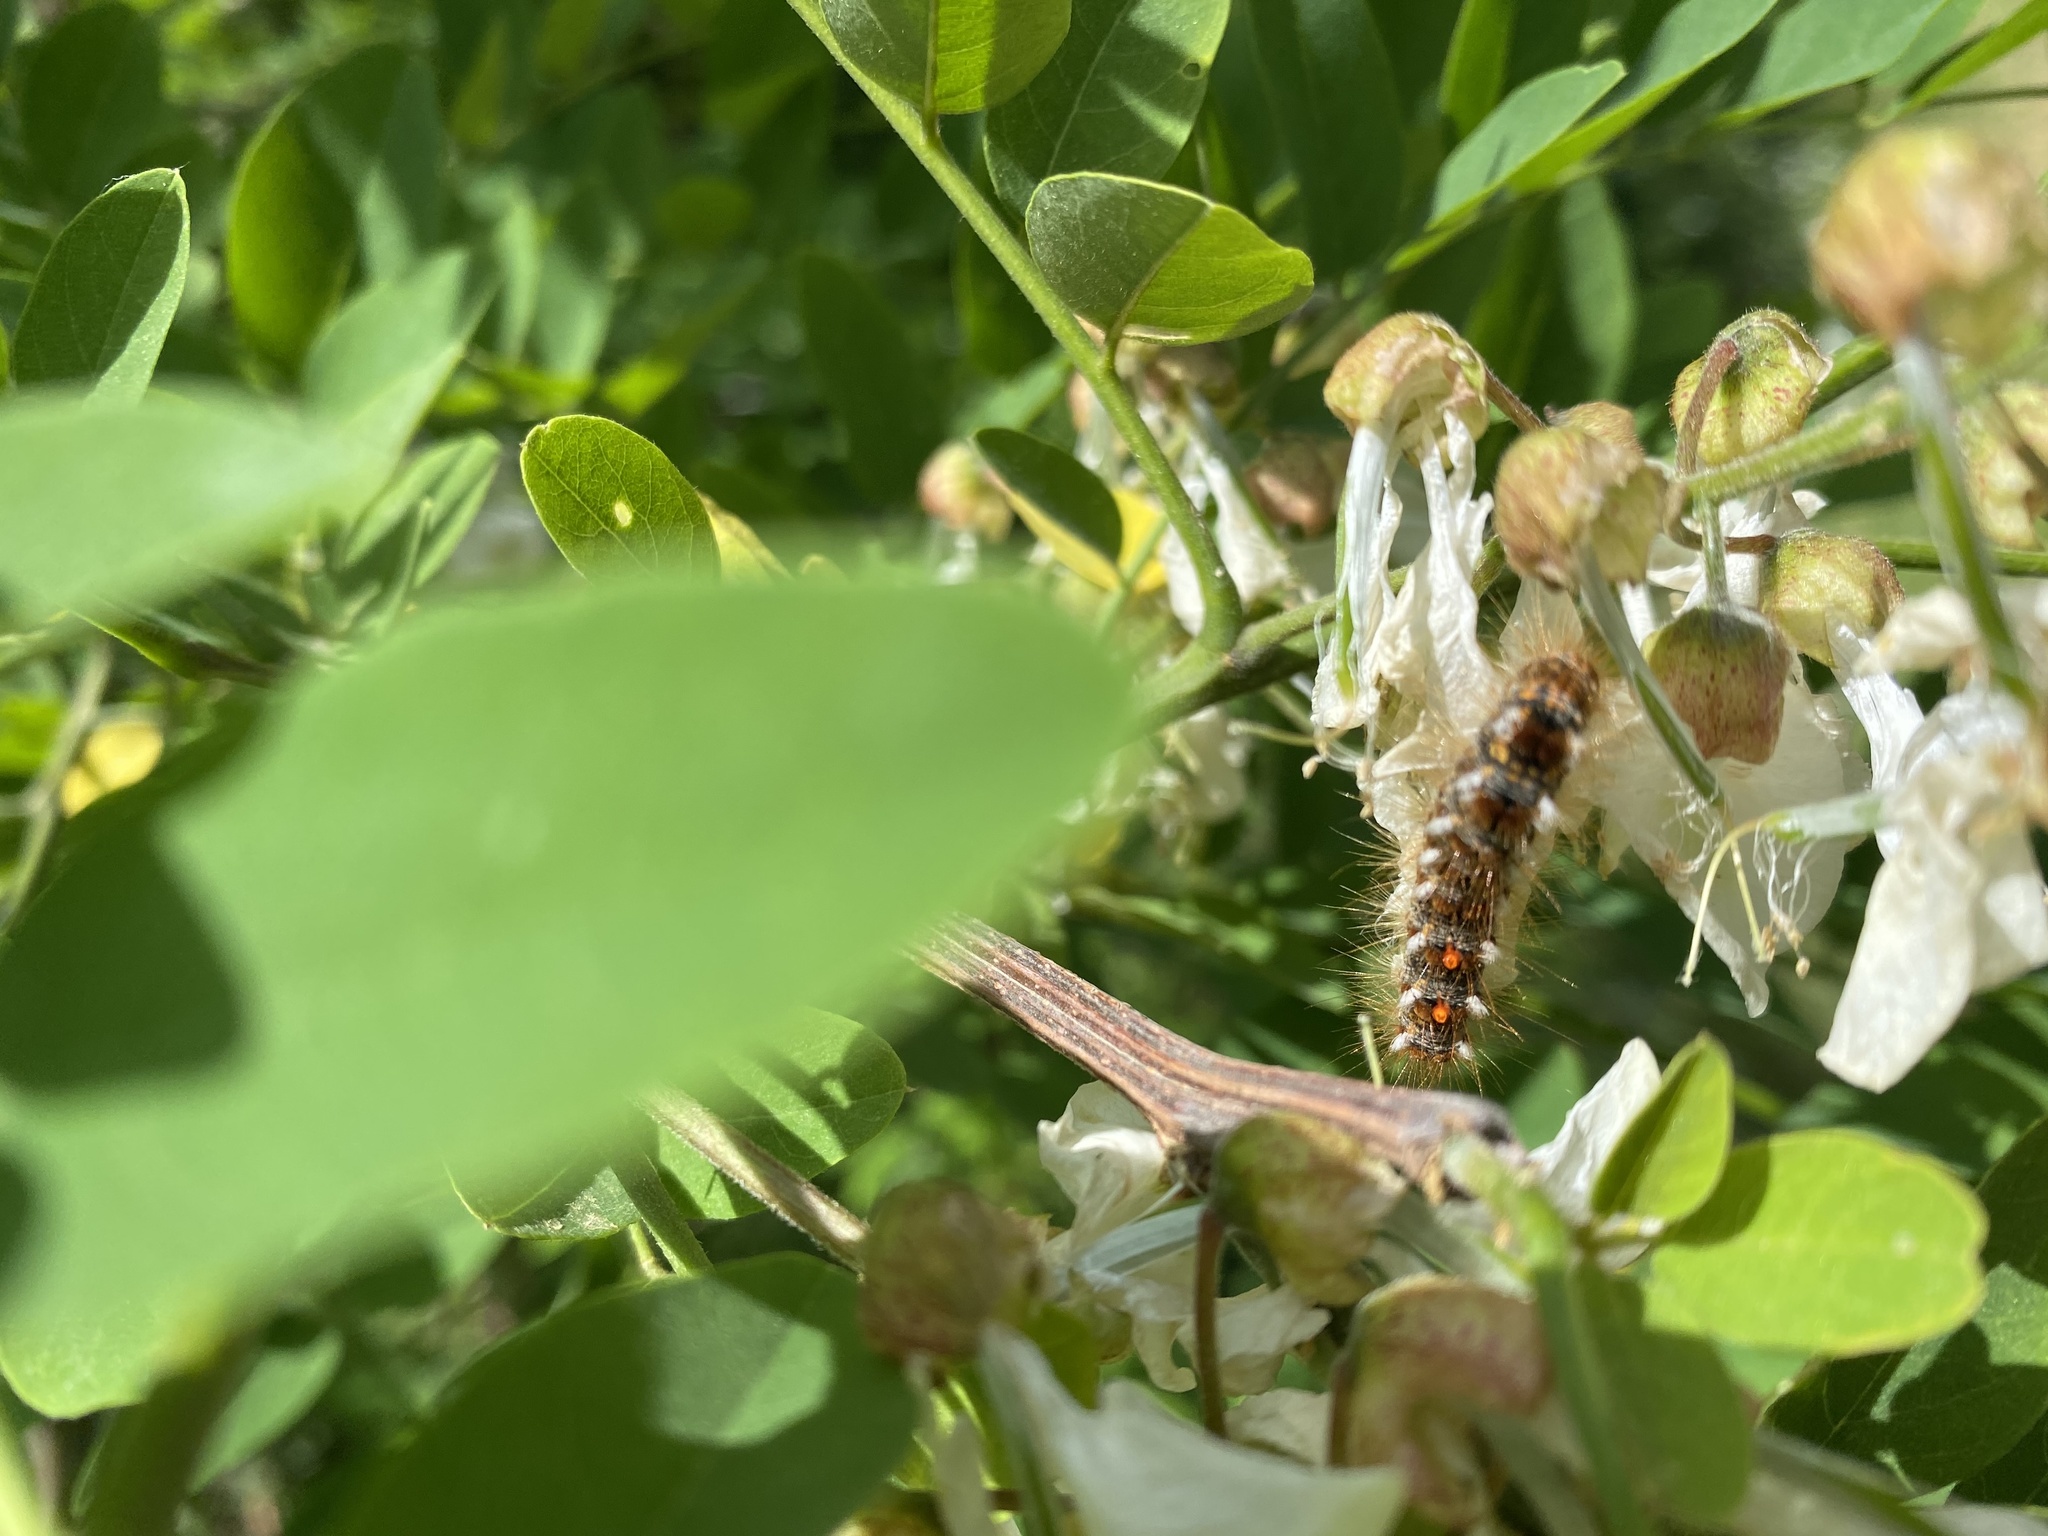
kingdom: Animalia
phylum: Arthropoda
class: Insecta
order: Lepidoptera
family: Erebidae
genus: Euproctis
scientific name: Euproctis chrysorrhoea
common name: Brown-tail
